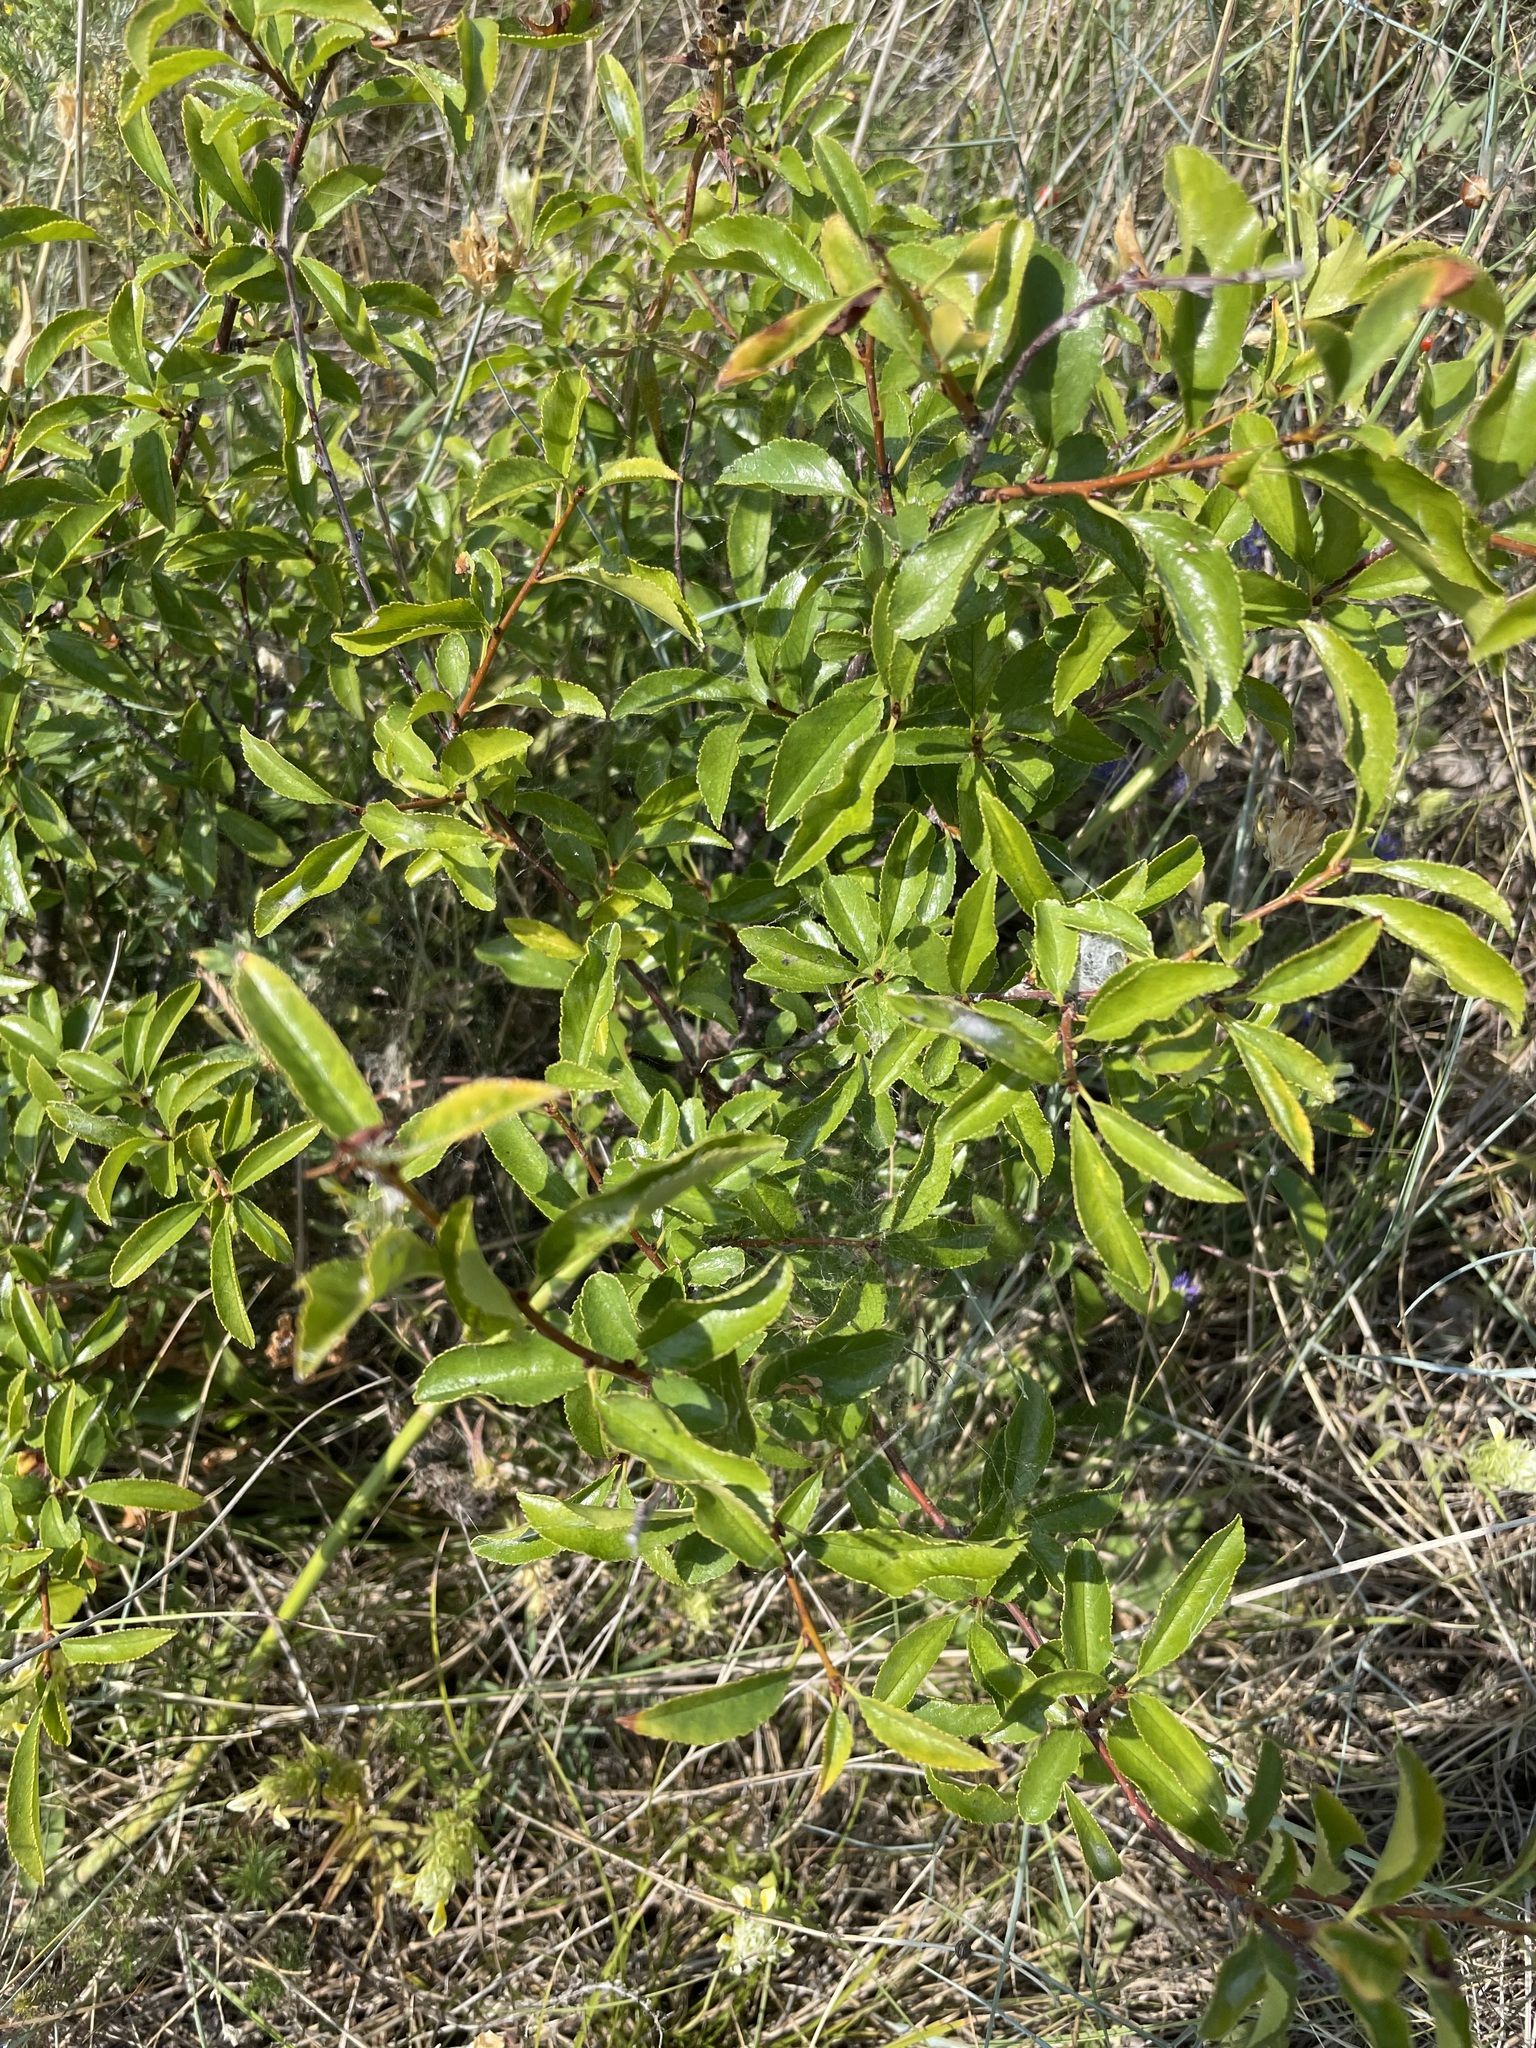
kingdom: Plantae
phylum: Tracheophyta
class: Magnoliopsida
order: Rosales
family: Rosaceae
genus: Prunus
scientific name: Prunus tenella
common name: Dwarf russian almond
